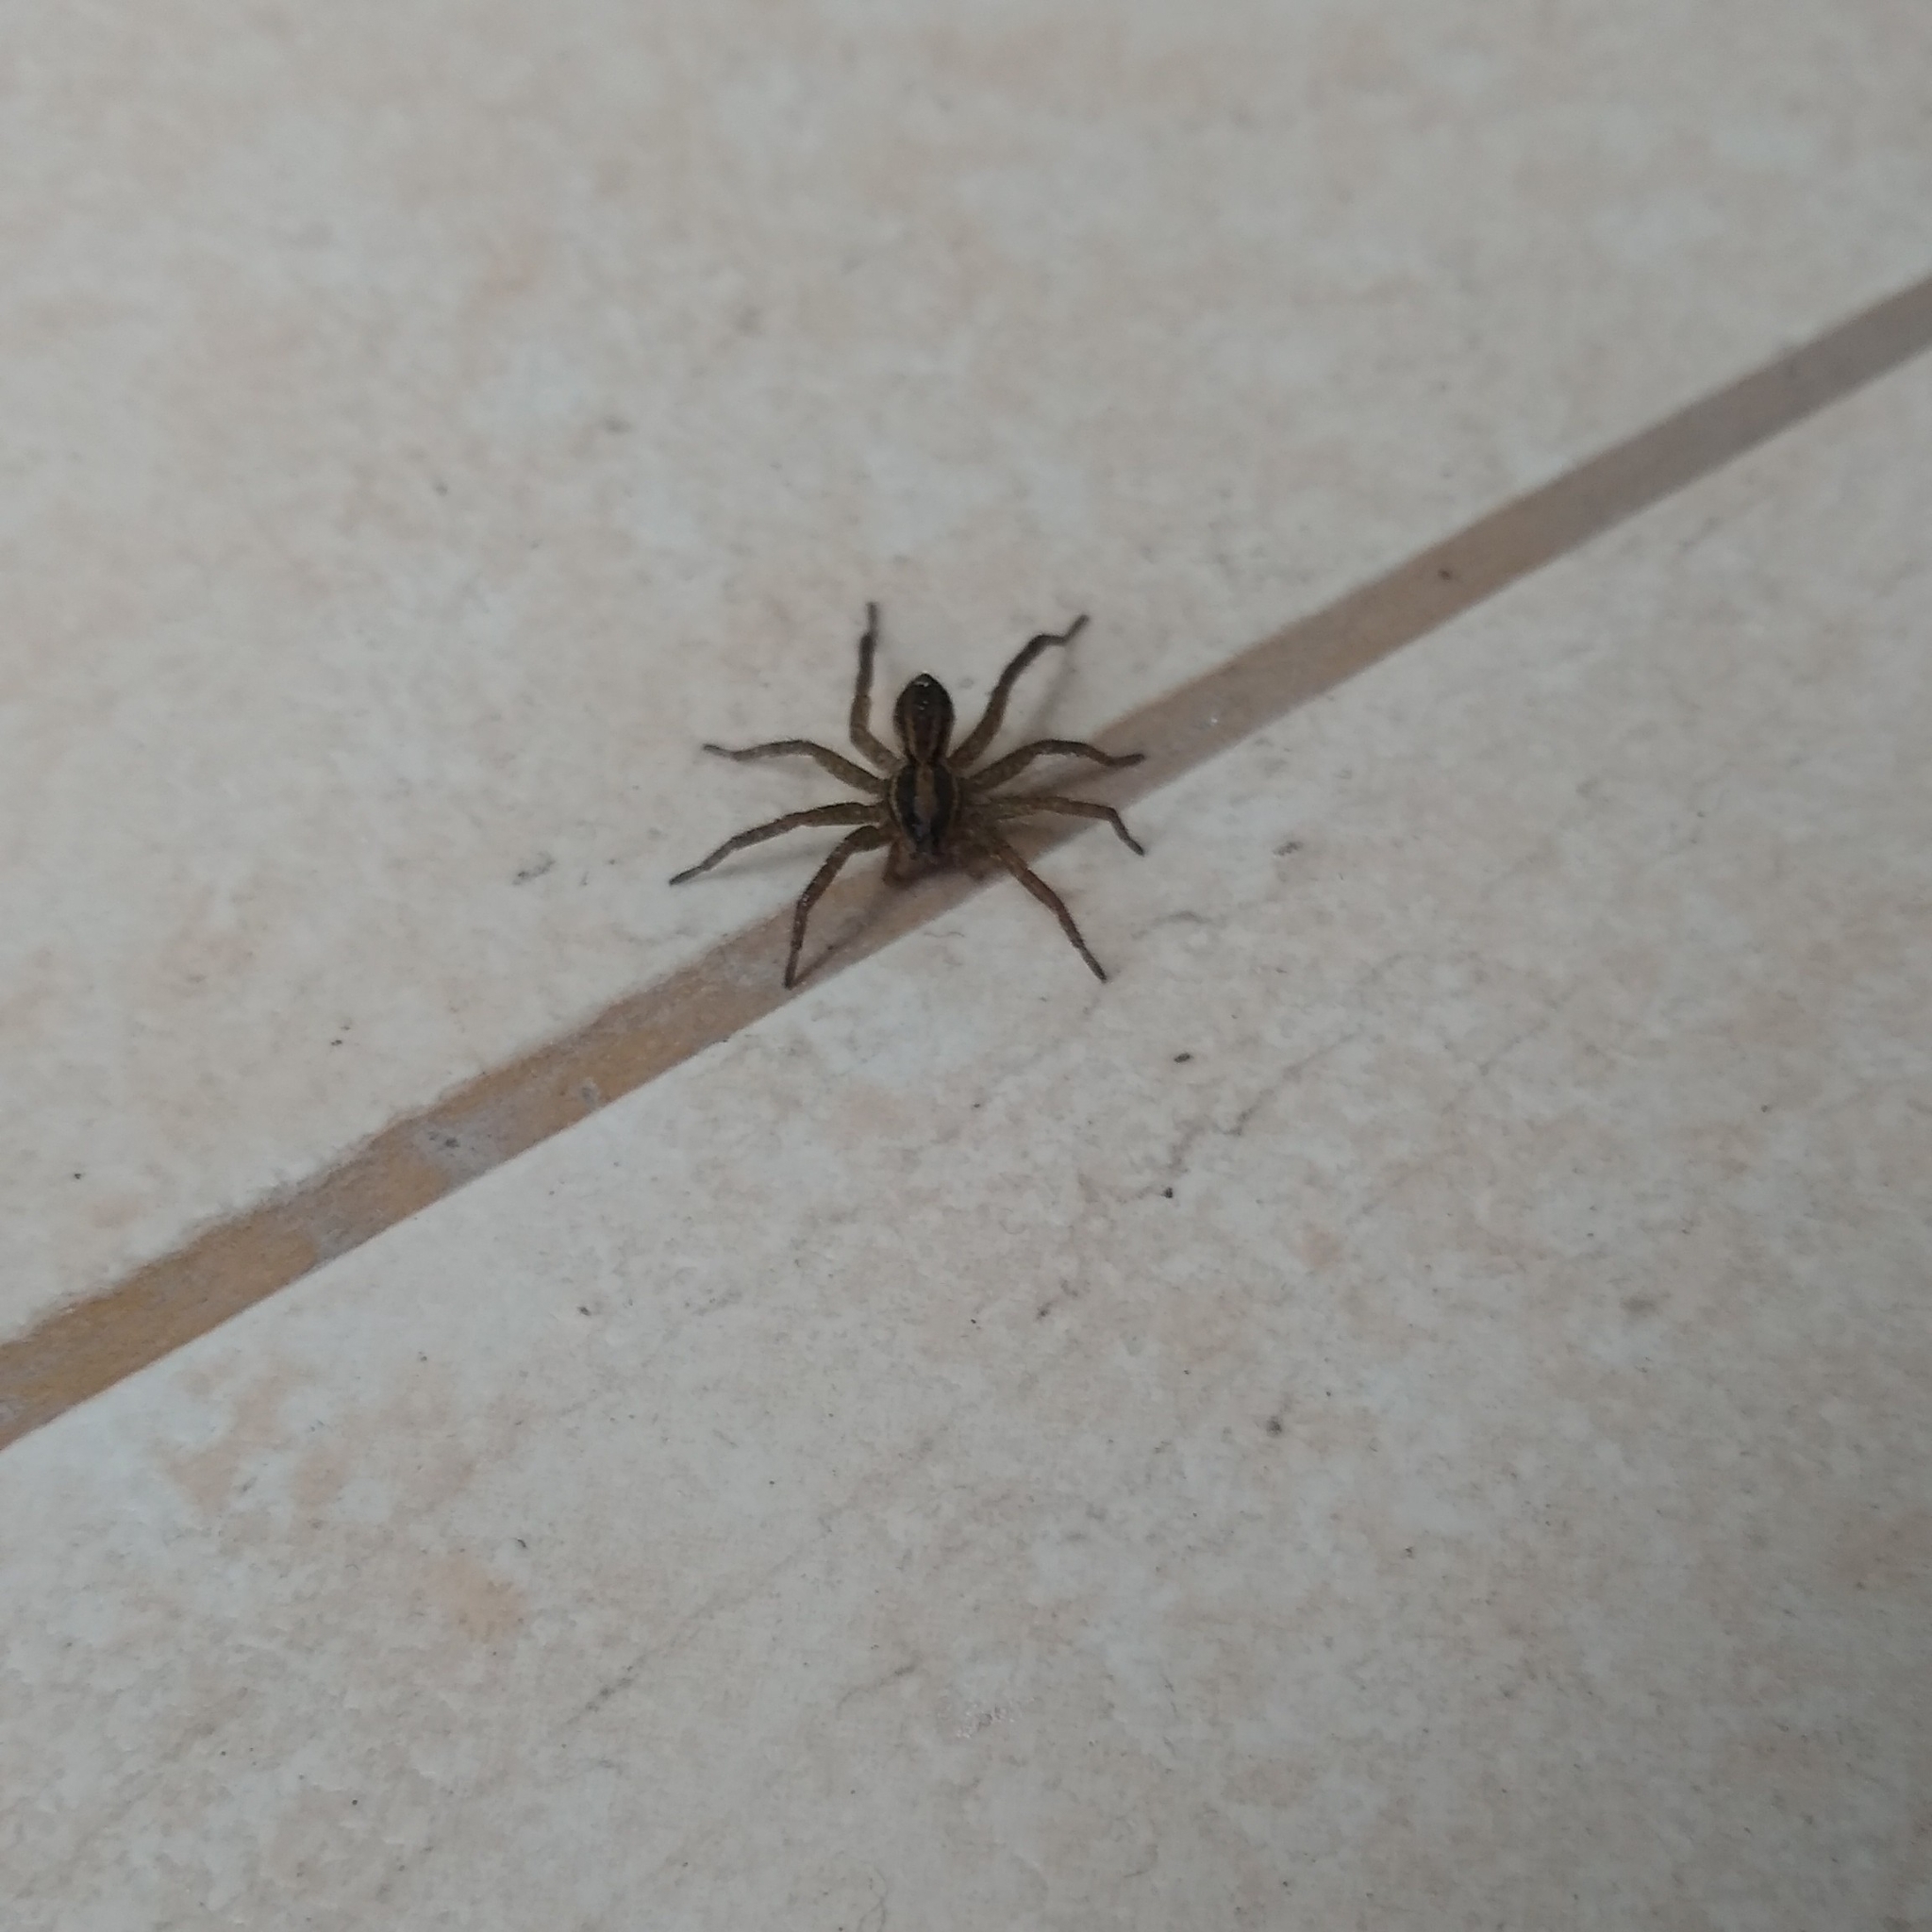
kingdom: Animalia
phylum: Arthropoda
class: Arachnida
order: Araneae
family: Lycosidae
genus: Alopecosa
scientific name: Alopecosa moesta
